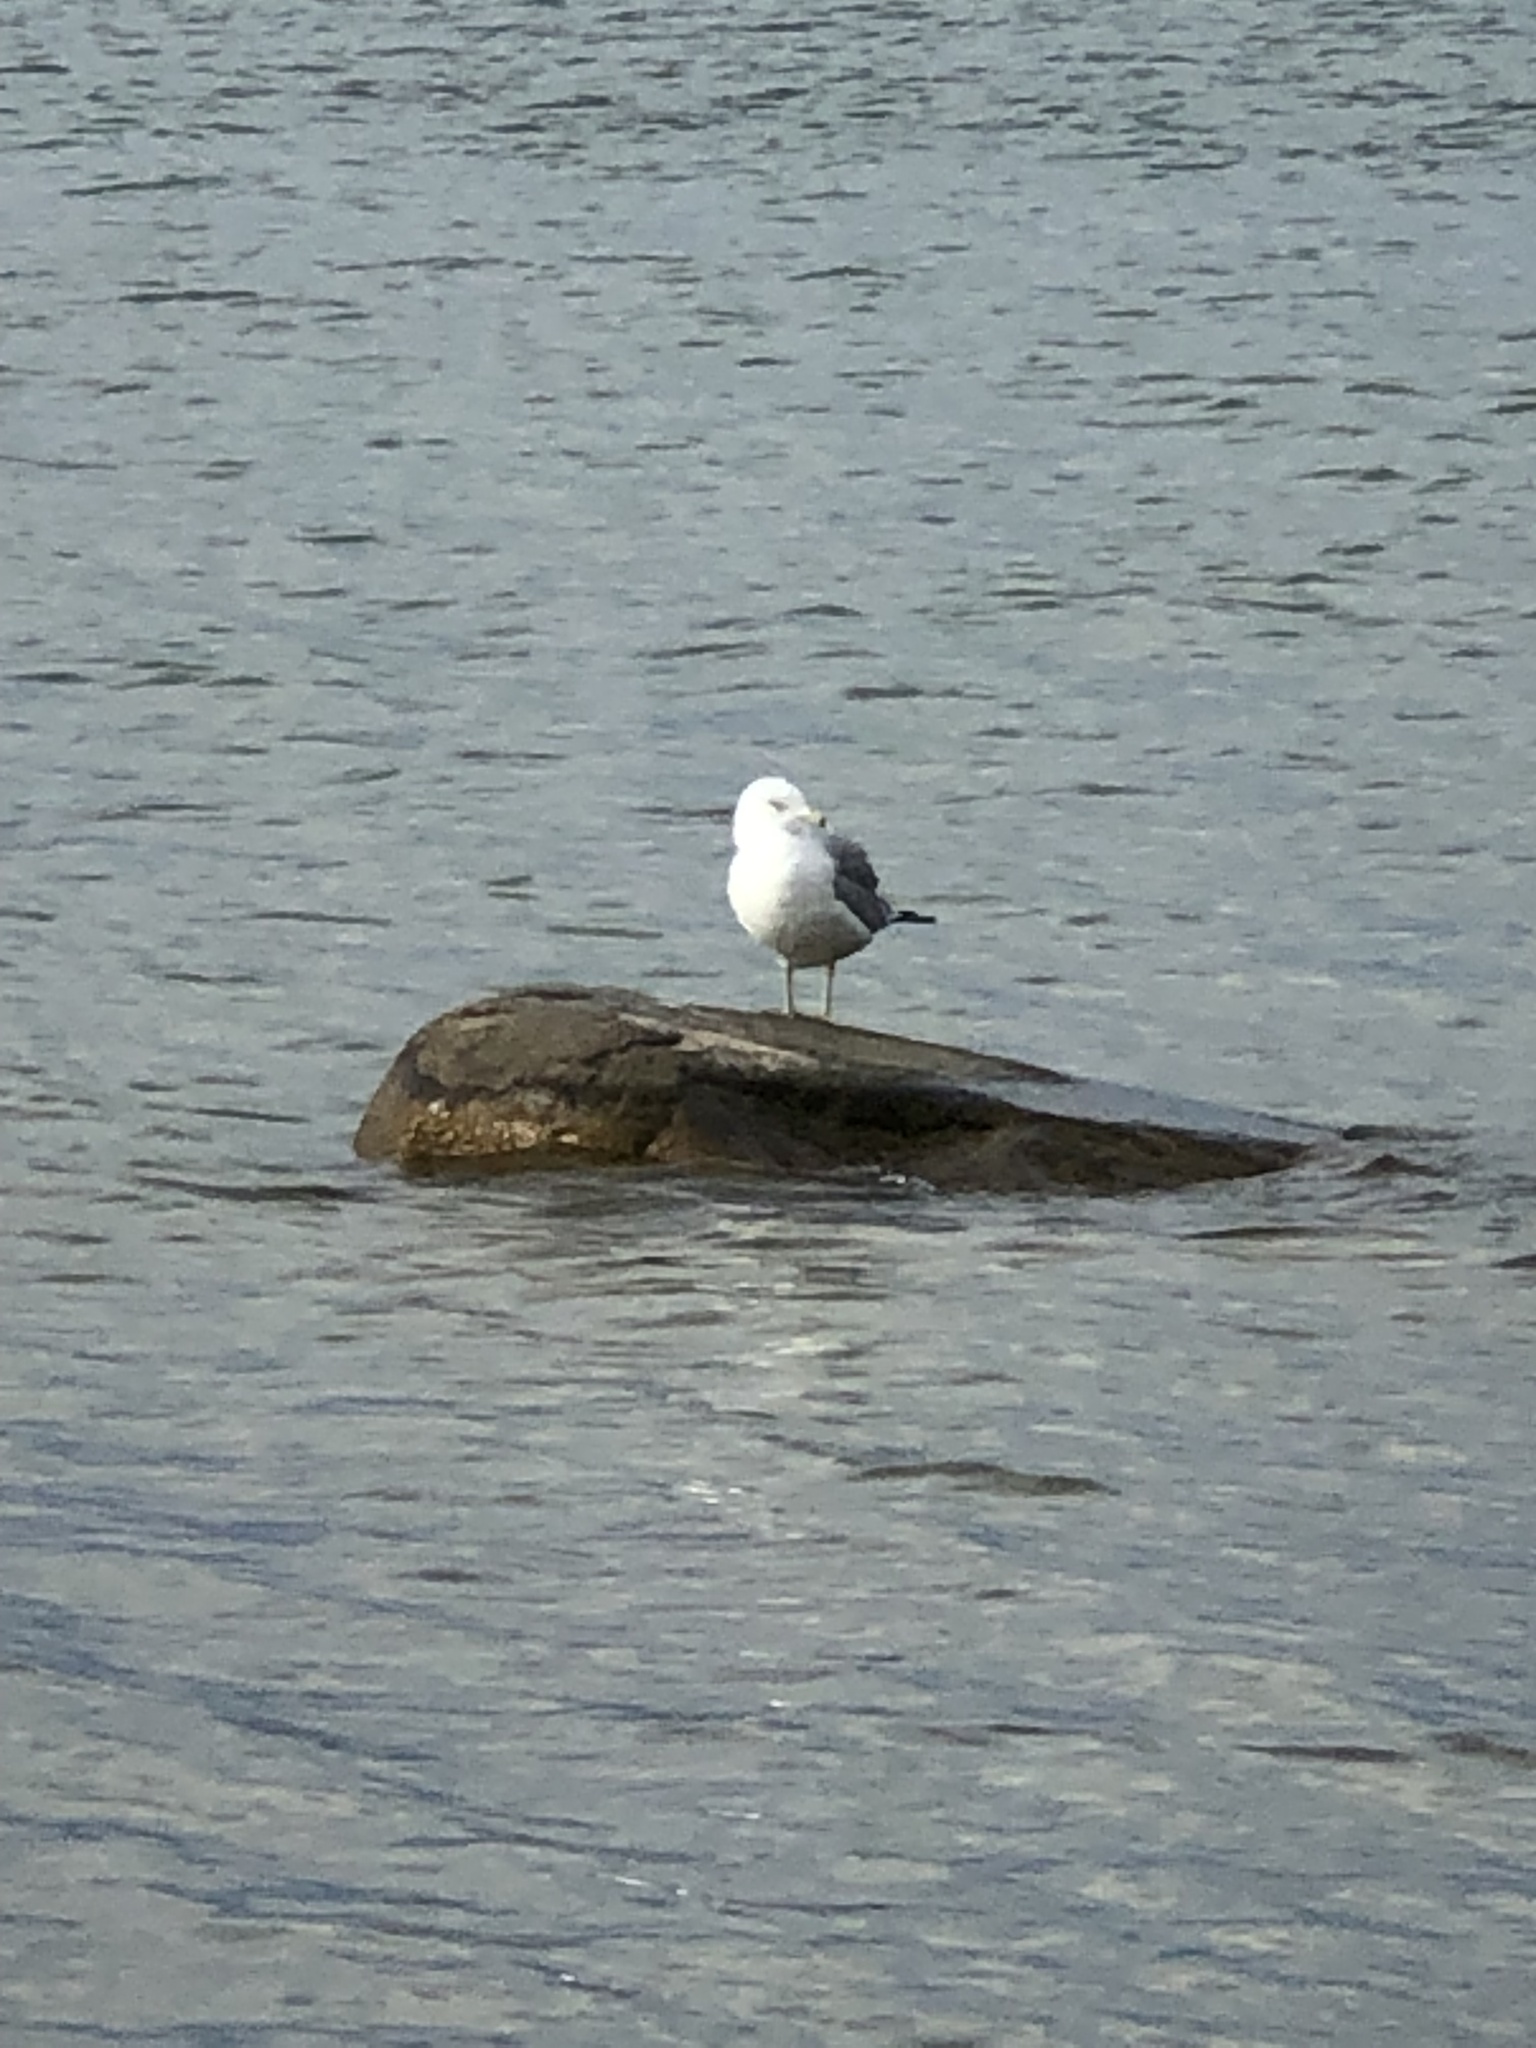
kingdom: Animalia
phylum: Chordata
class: Aves
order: Charadriiformes
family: Laridae
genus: Larus
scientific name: Larus delawarensis
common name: Ring-billed gull
